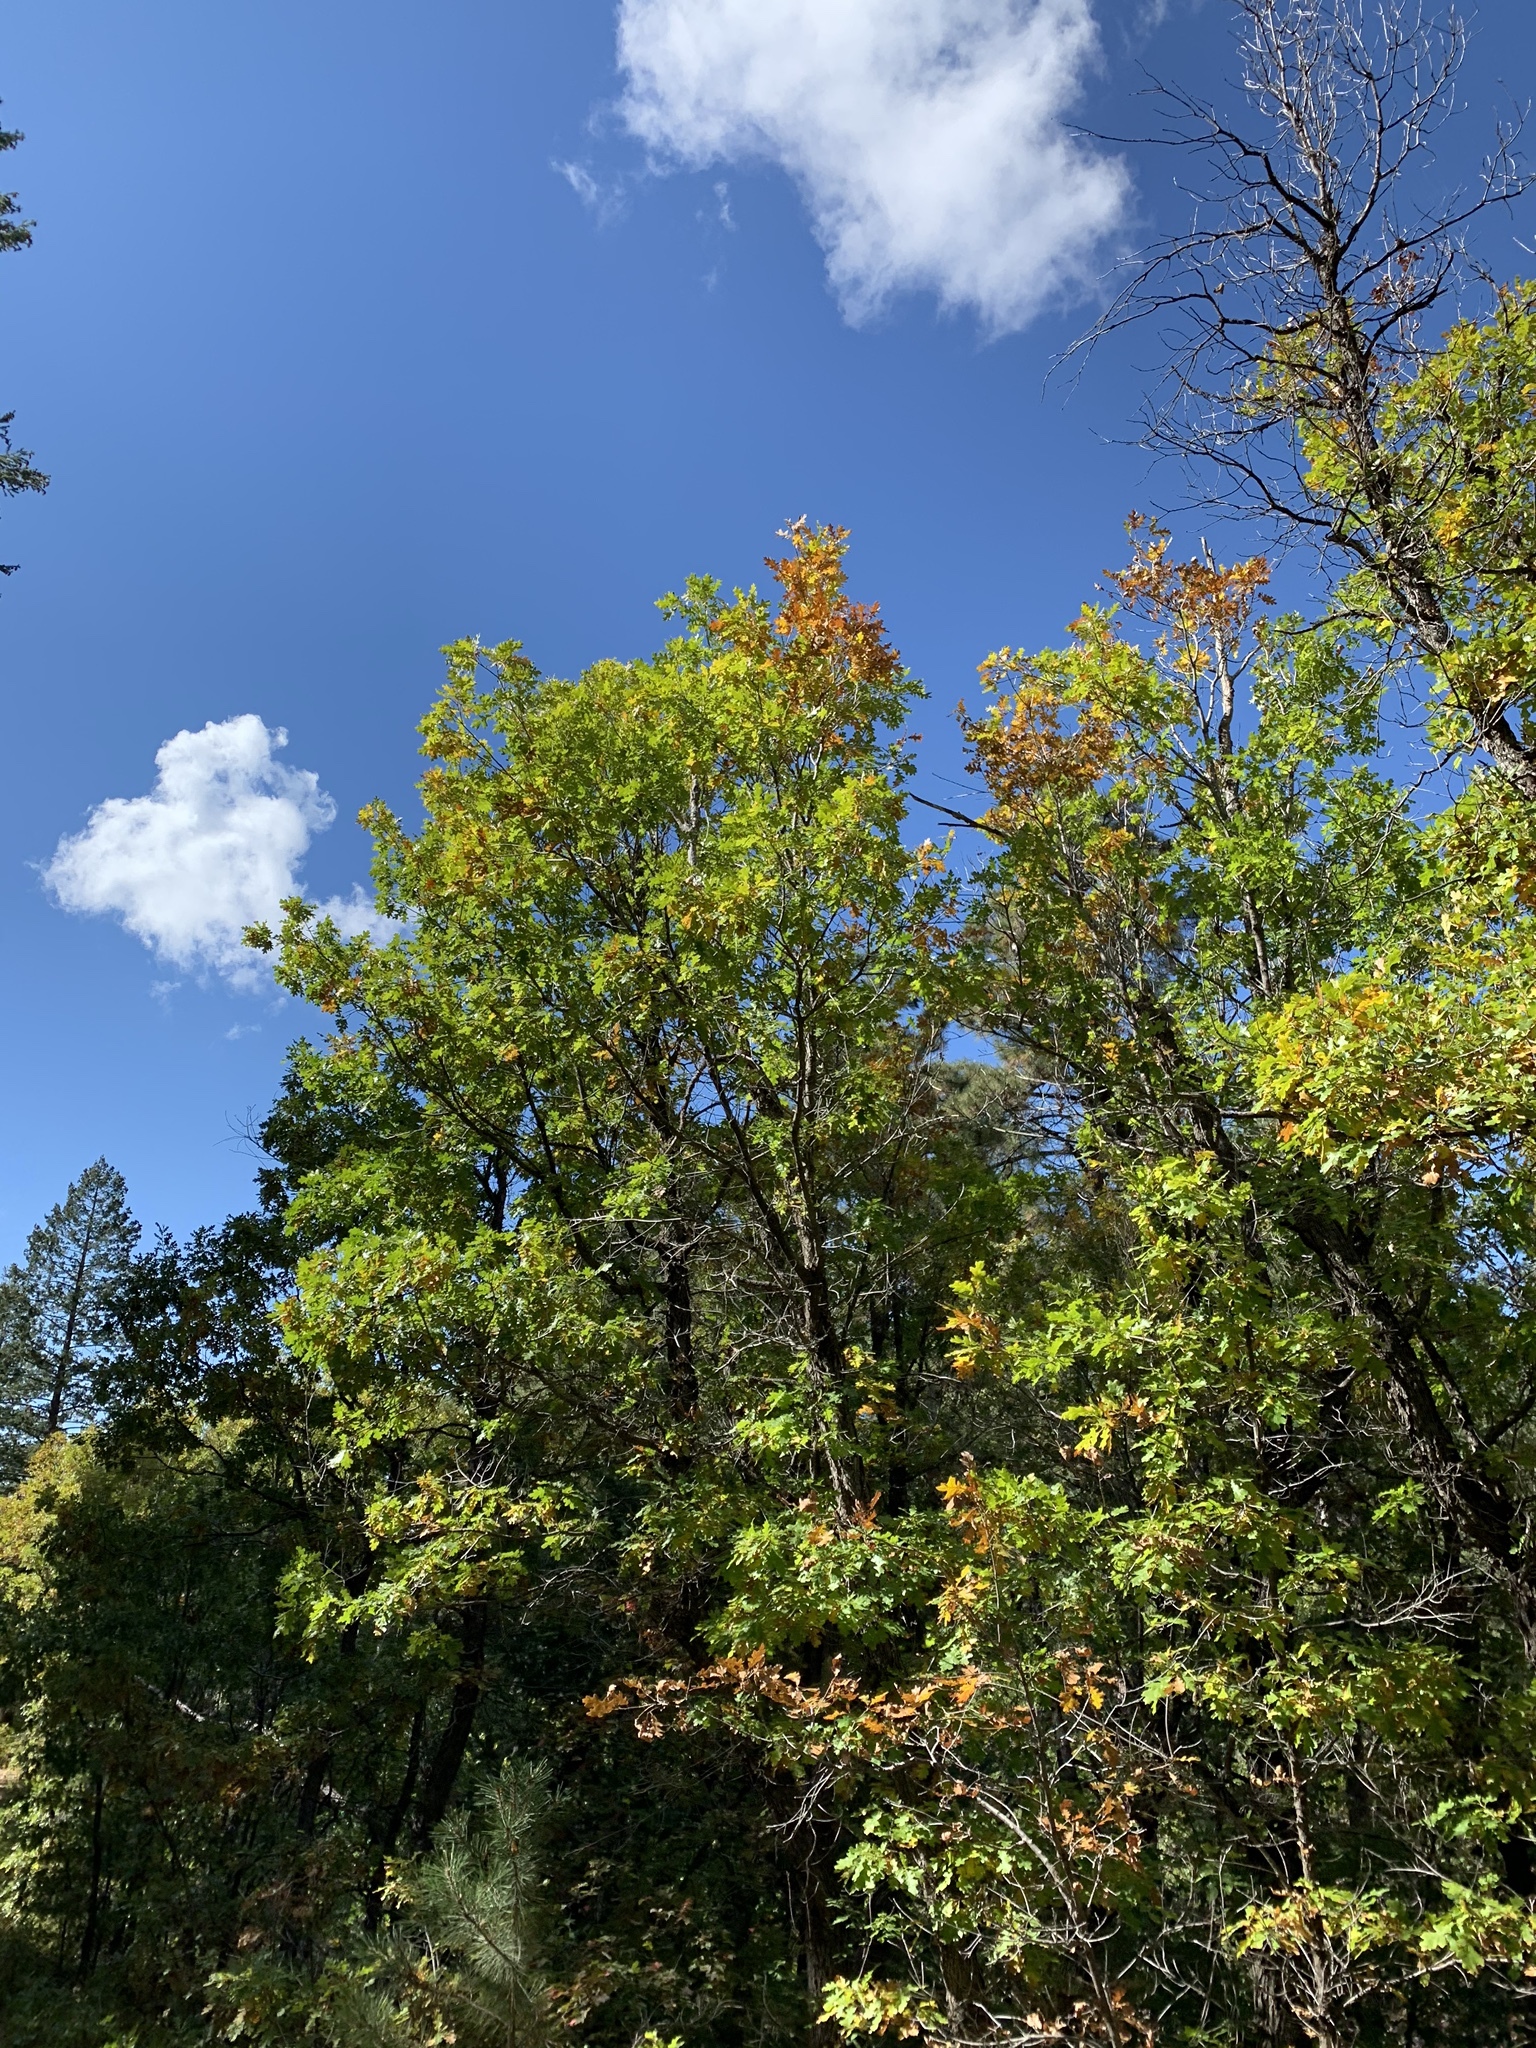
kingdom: Plantae
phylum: Tracheophyta
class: Magnoliopsida
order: Fagales
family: Fagaceae
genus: Quercus
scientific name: Quercus gambelii
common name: Gambel oak
